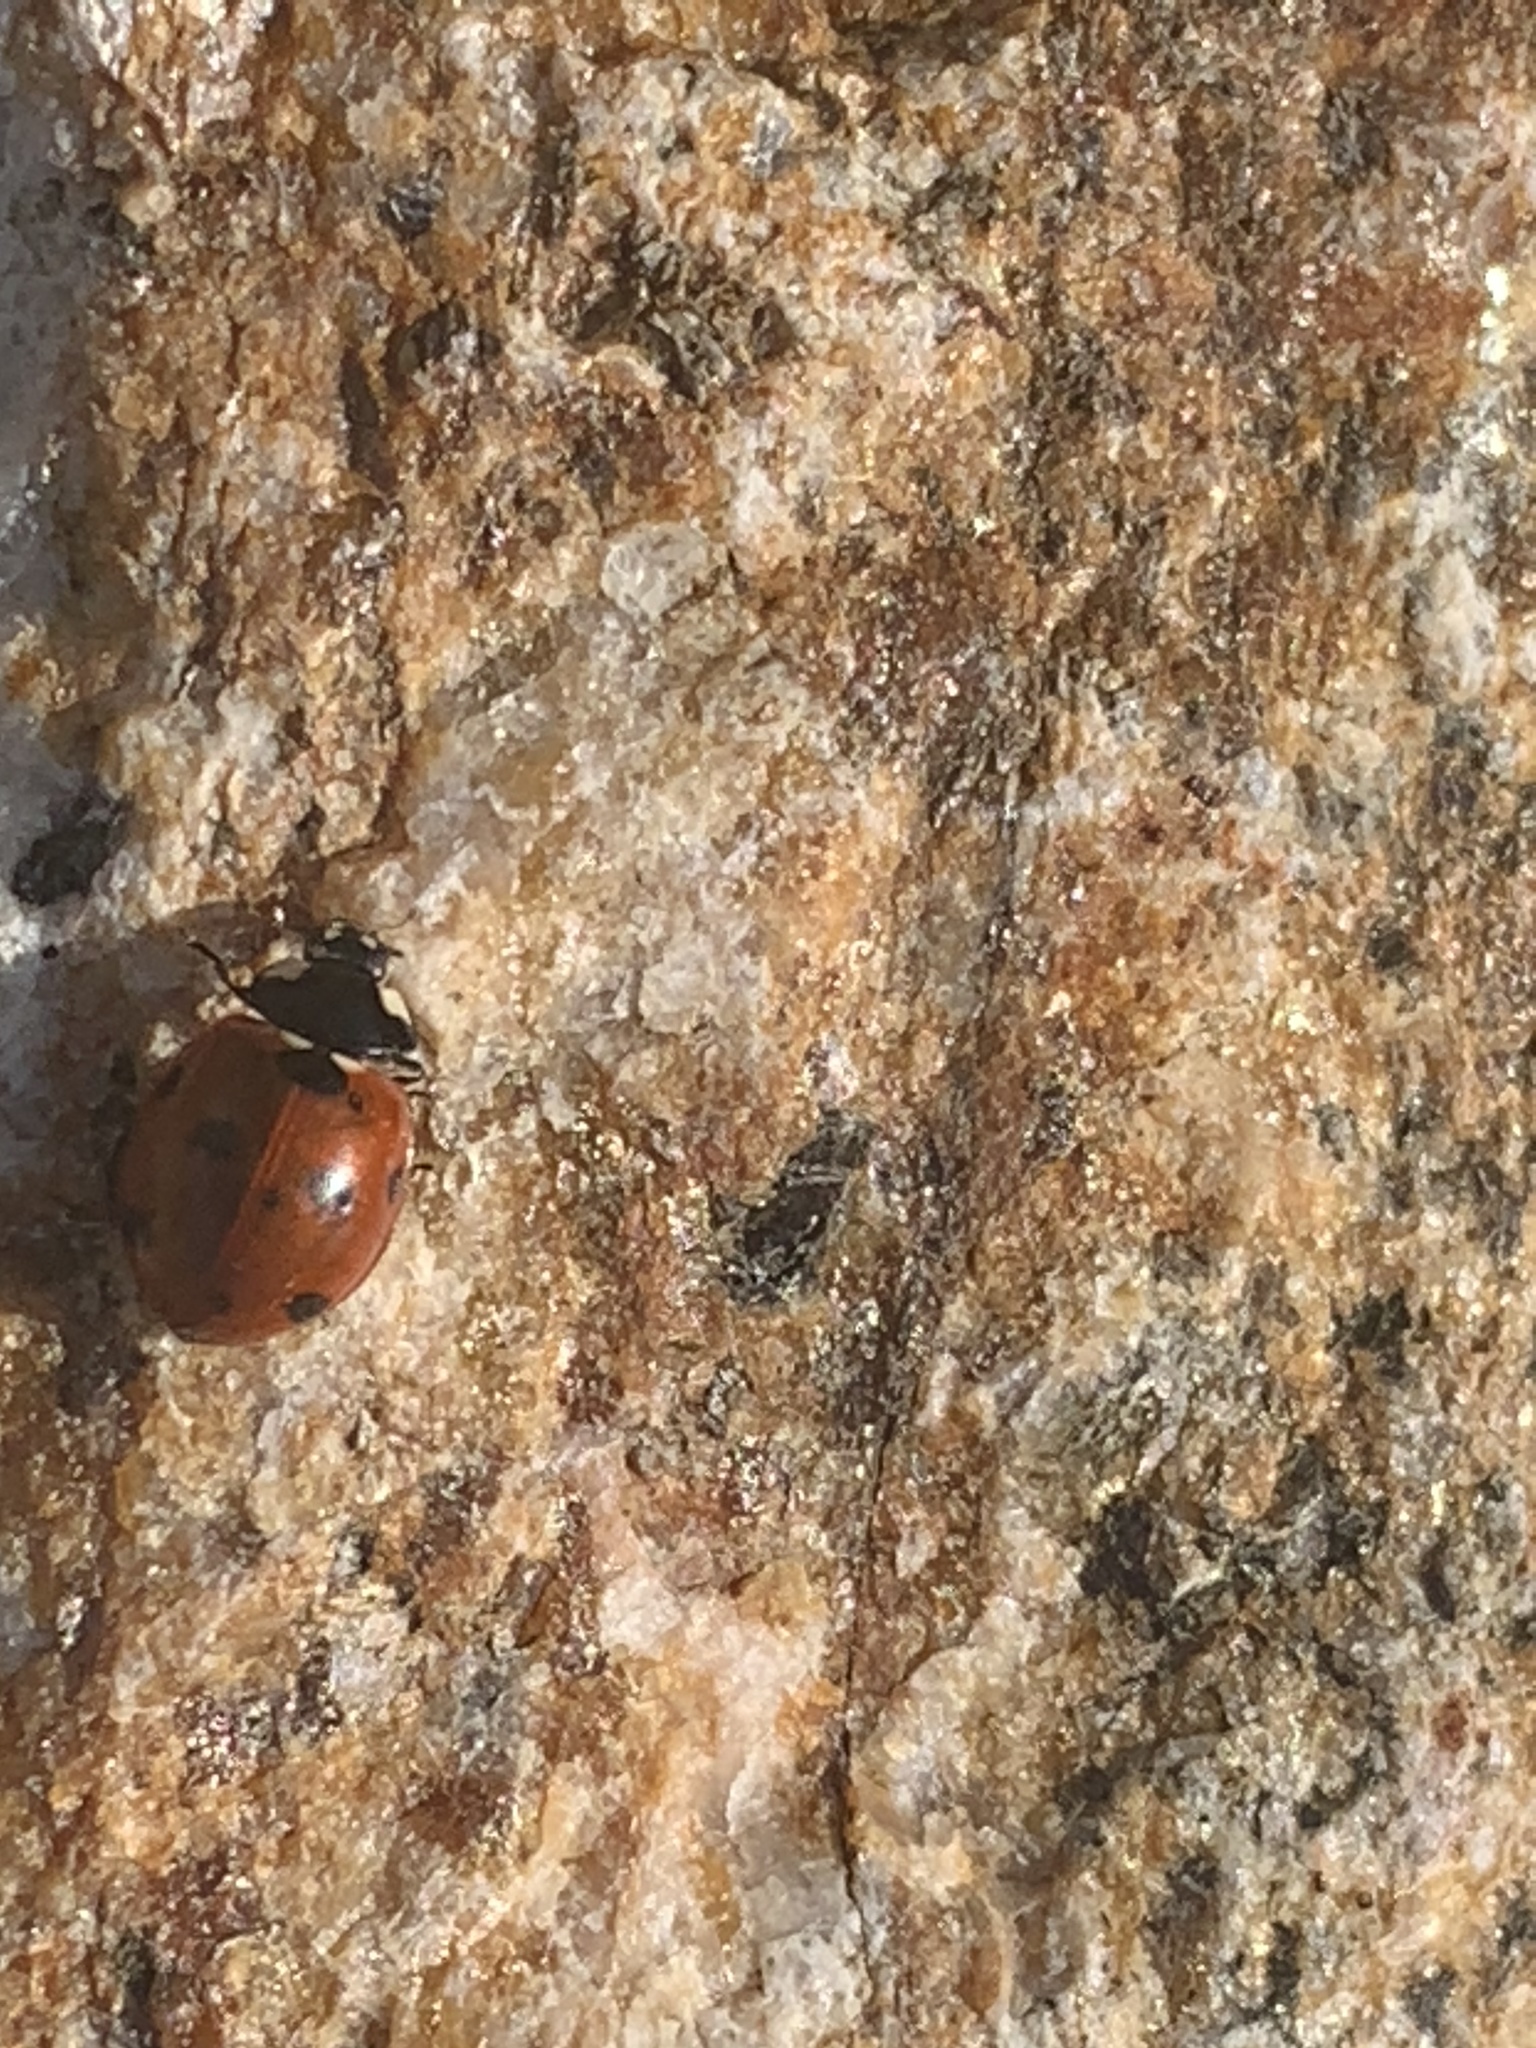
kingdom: Animalia
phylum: Arthropoda
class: Insecta
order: Coleoptera
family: Coccinellidae
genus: Coccinella
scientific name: Coccinella septempunctata
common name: Sevenspotted lady beetle
